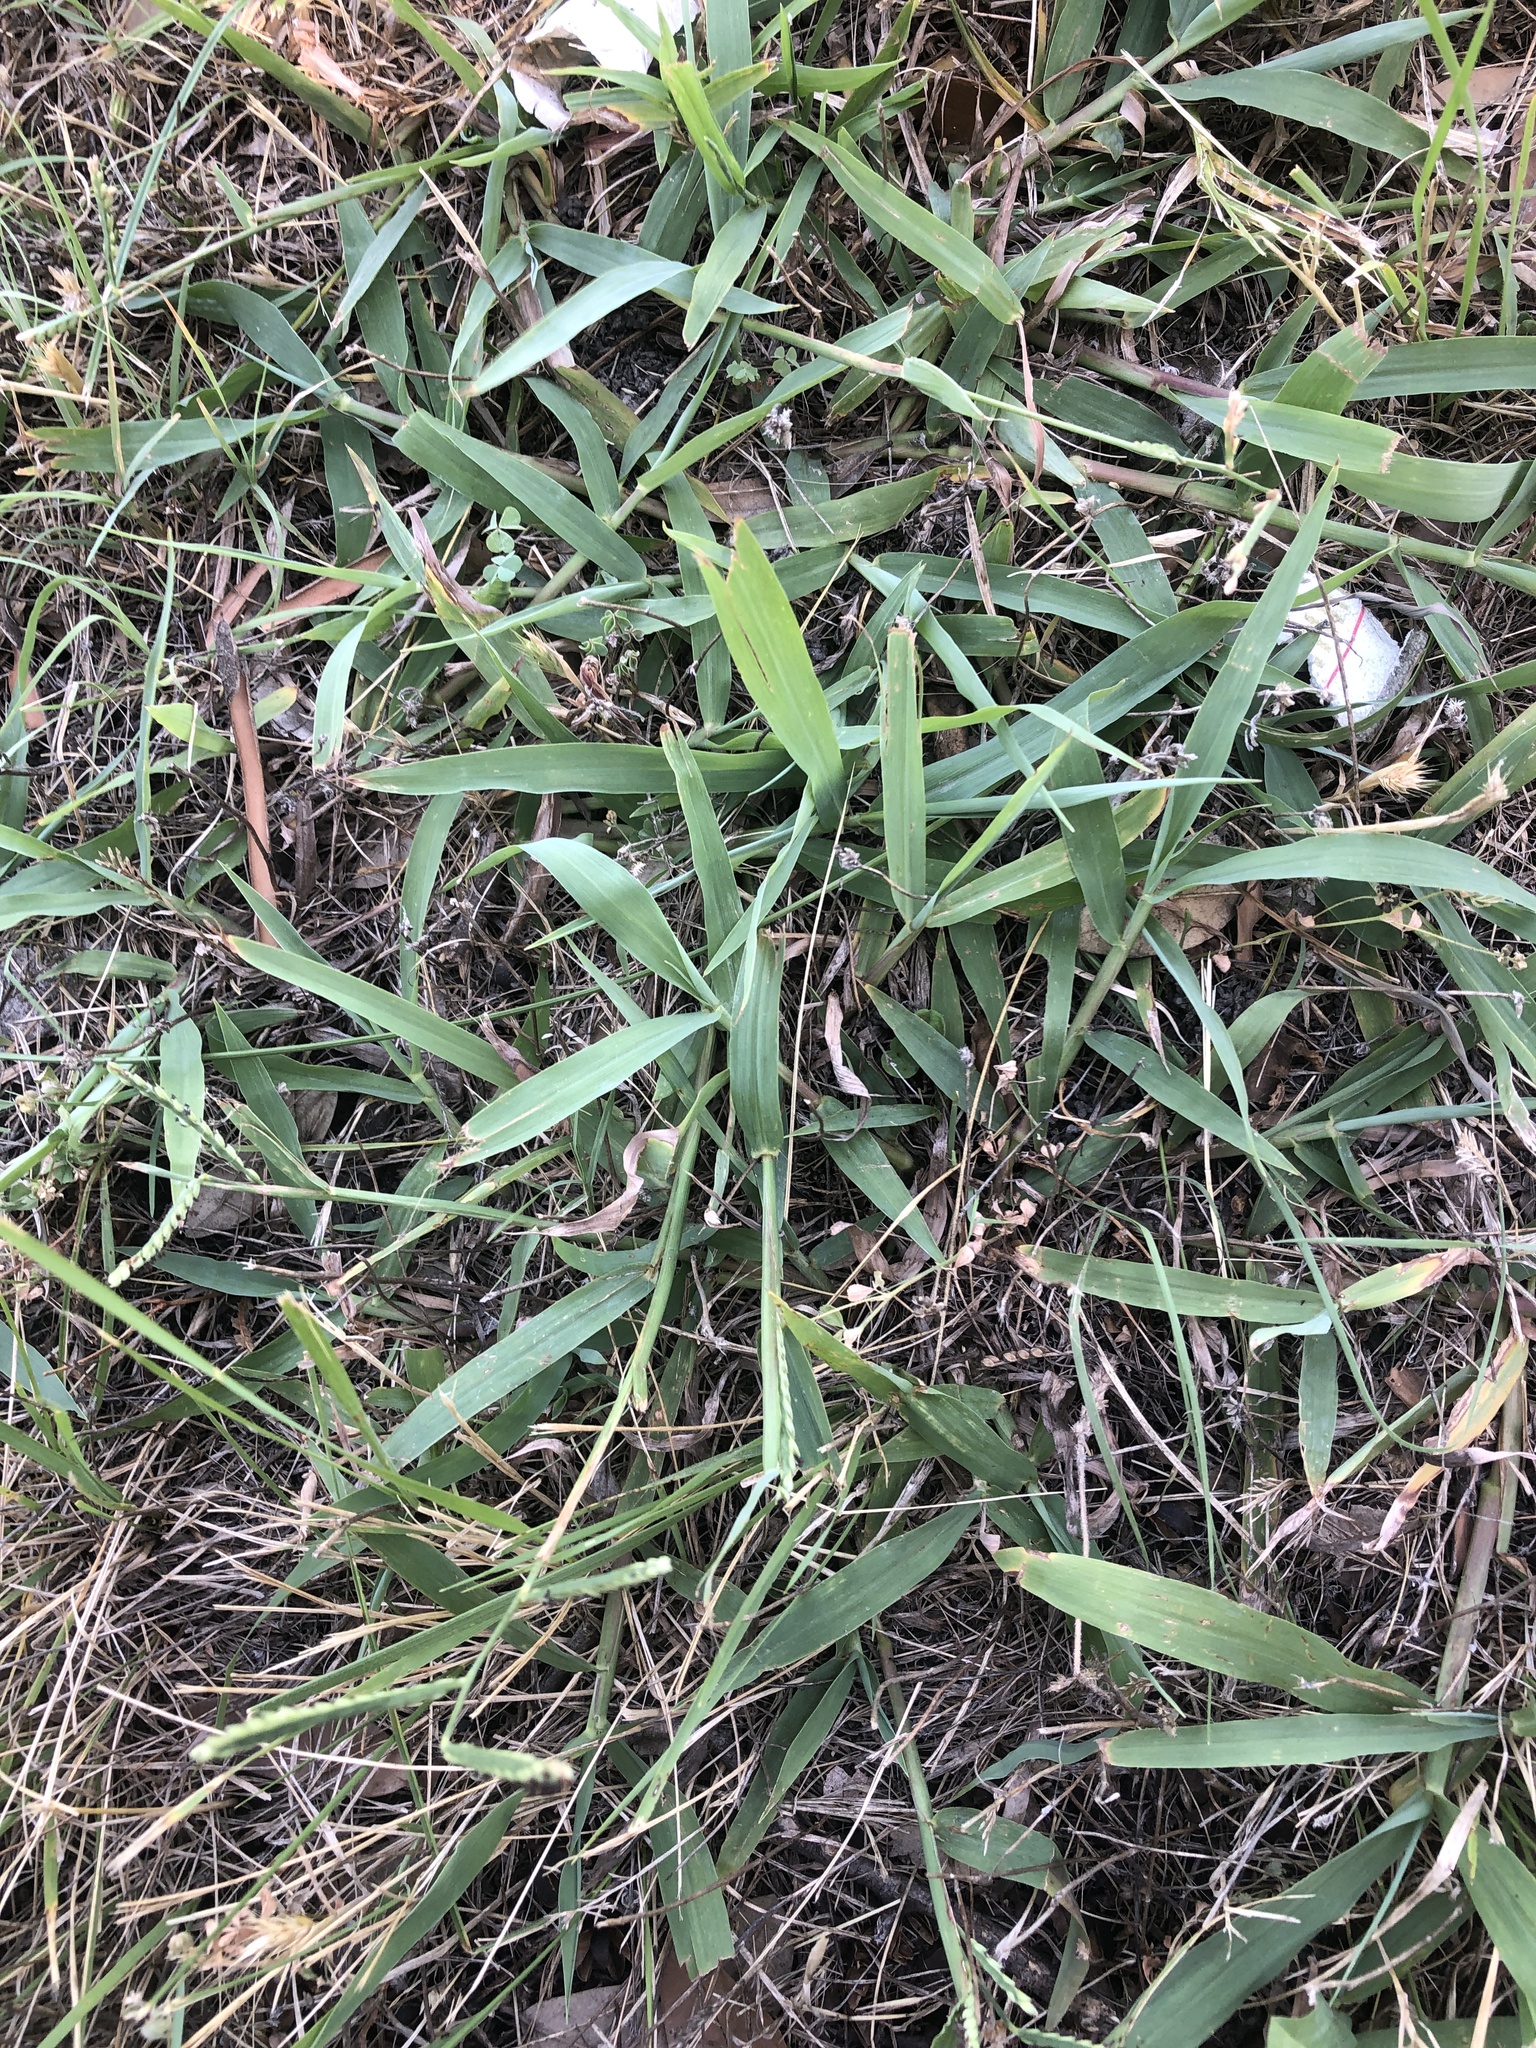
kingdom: Plantae
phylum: Tracheophyta
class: Liliopsida
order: Poales
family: Poaceae
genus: Paspalum
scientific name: Paspalum dilatatum
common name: Dallisgrass
